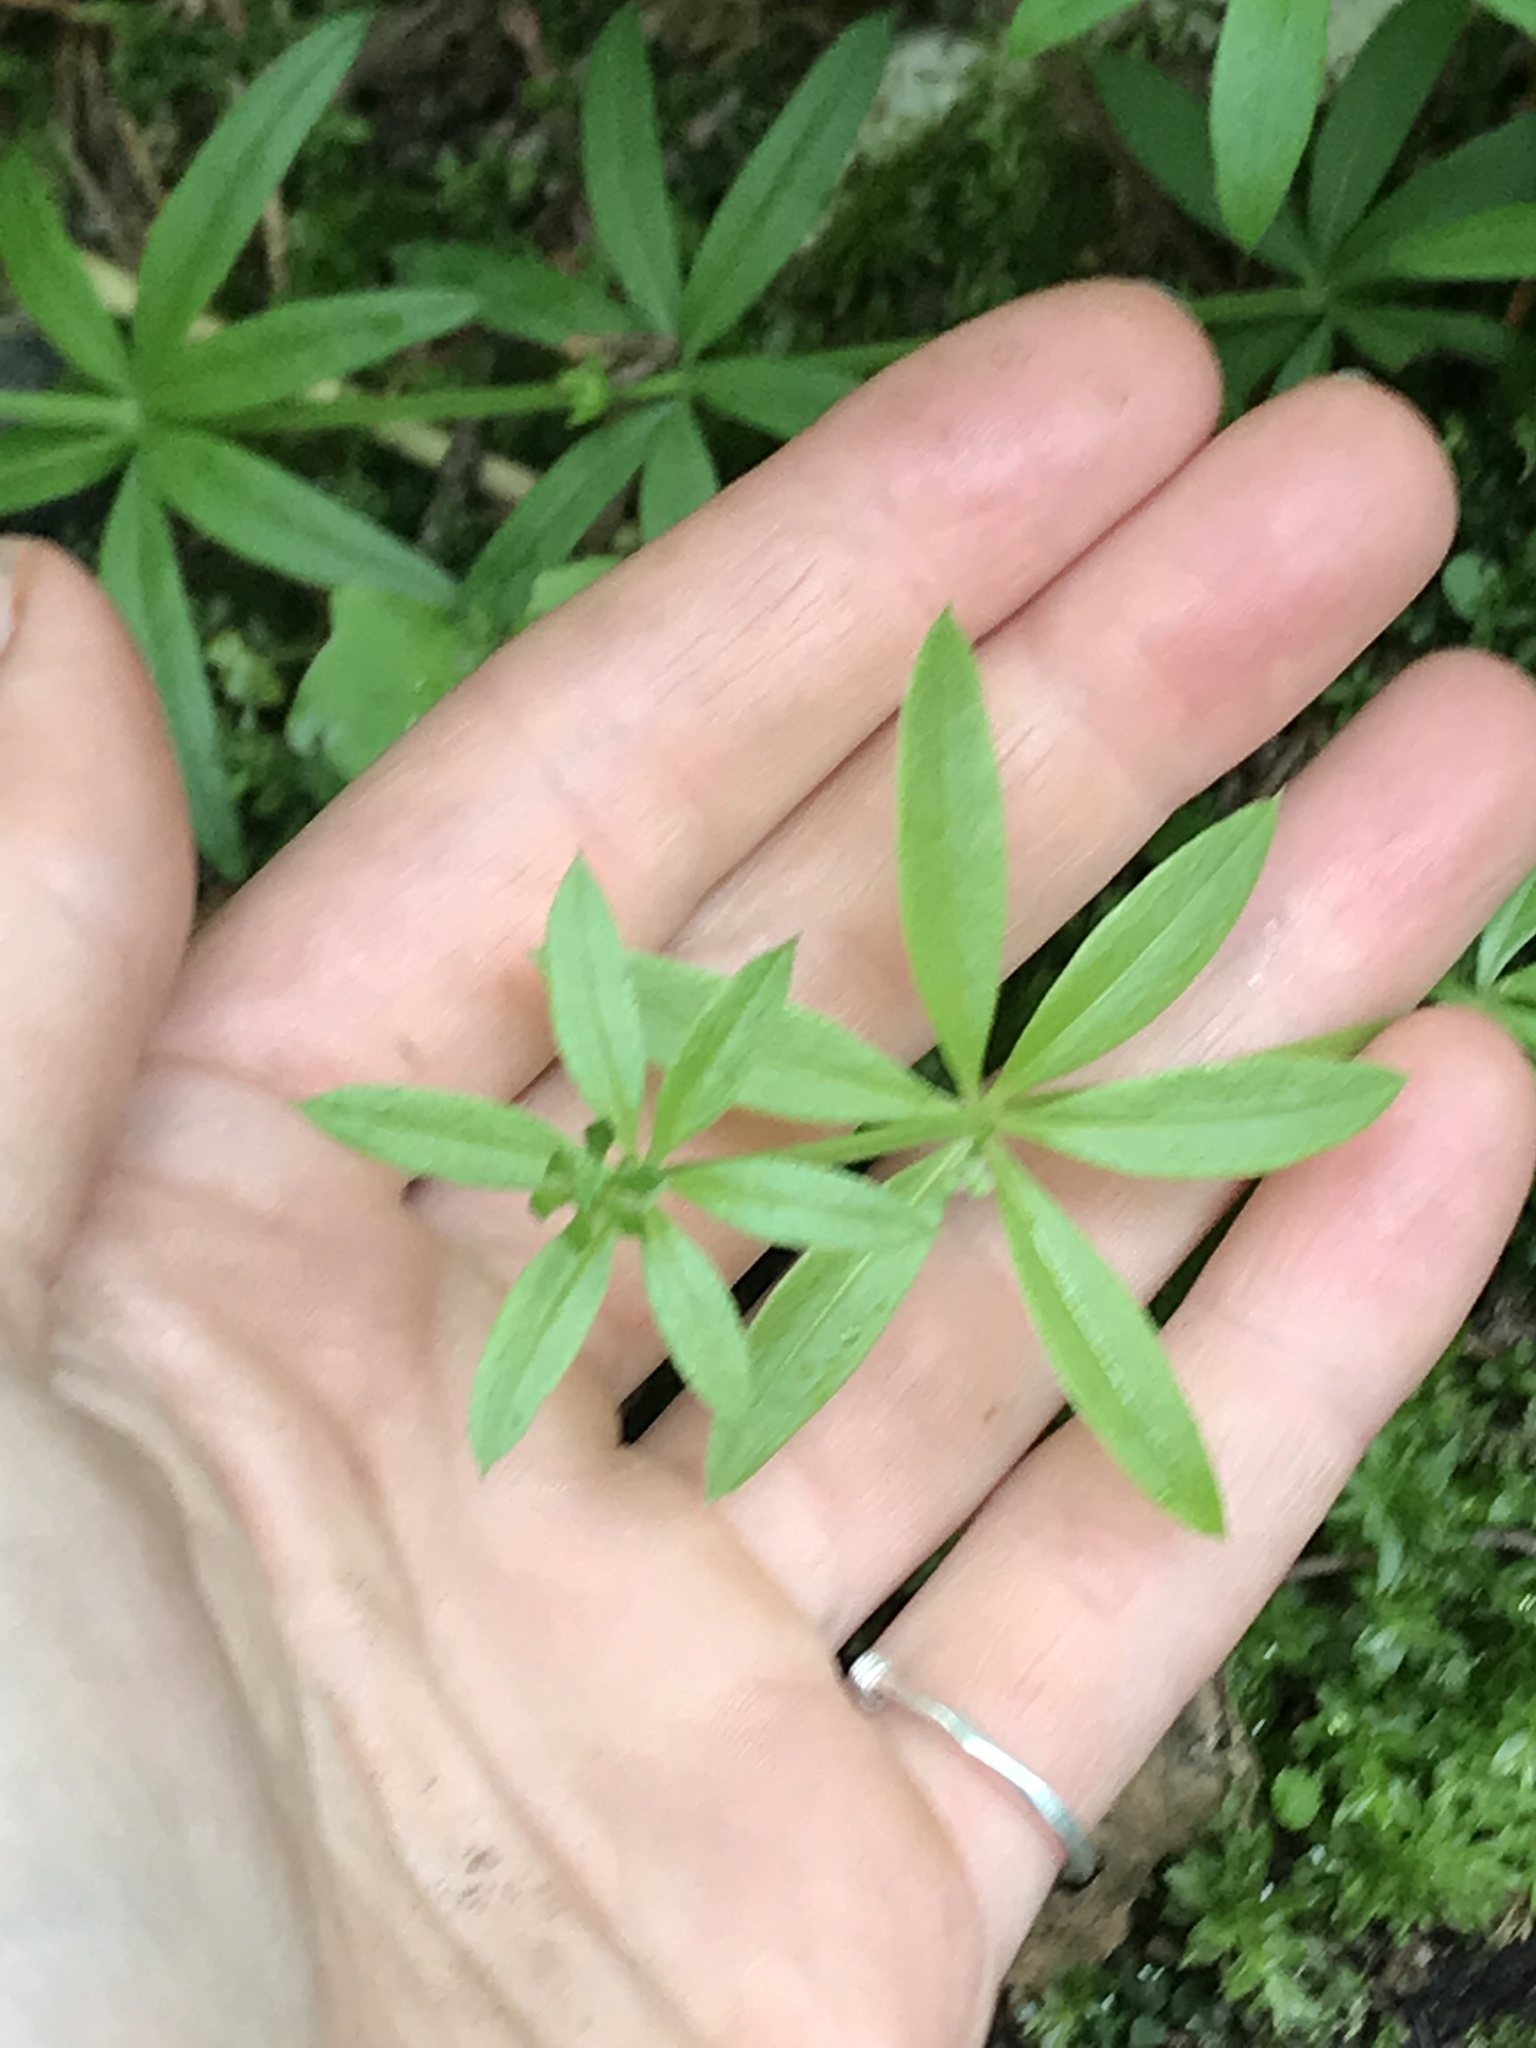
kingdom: Plantae
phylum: Tracheophyta
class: Magnoliopsida
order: Gentianales
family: Rubiaceae
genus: Galium
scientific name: Galium triflorum
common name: Fragrant bedstraw
